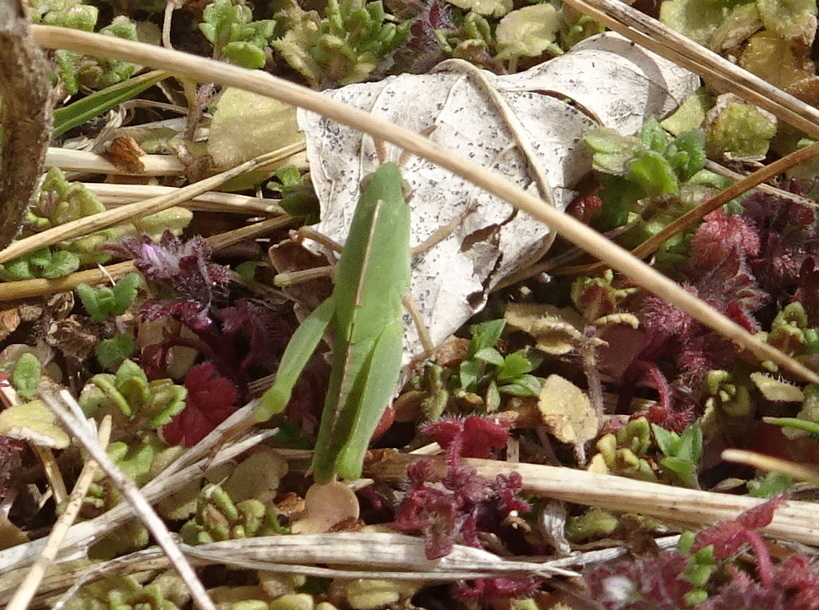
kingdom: Animalia
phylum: Arthropoda
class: Insecta
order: Orthoptera
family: Acrididae
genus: Chortophaga
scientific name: Chortophaga viridifasciata
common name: Green-striped grasshopper
